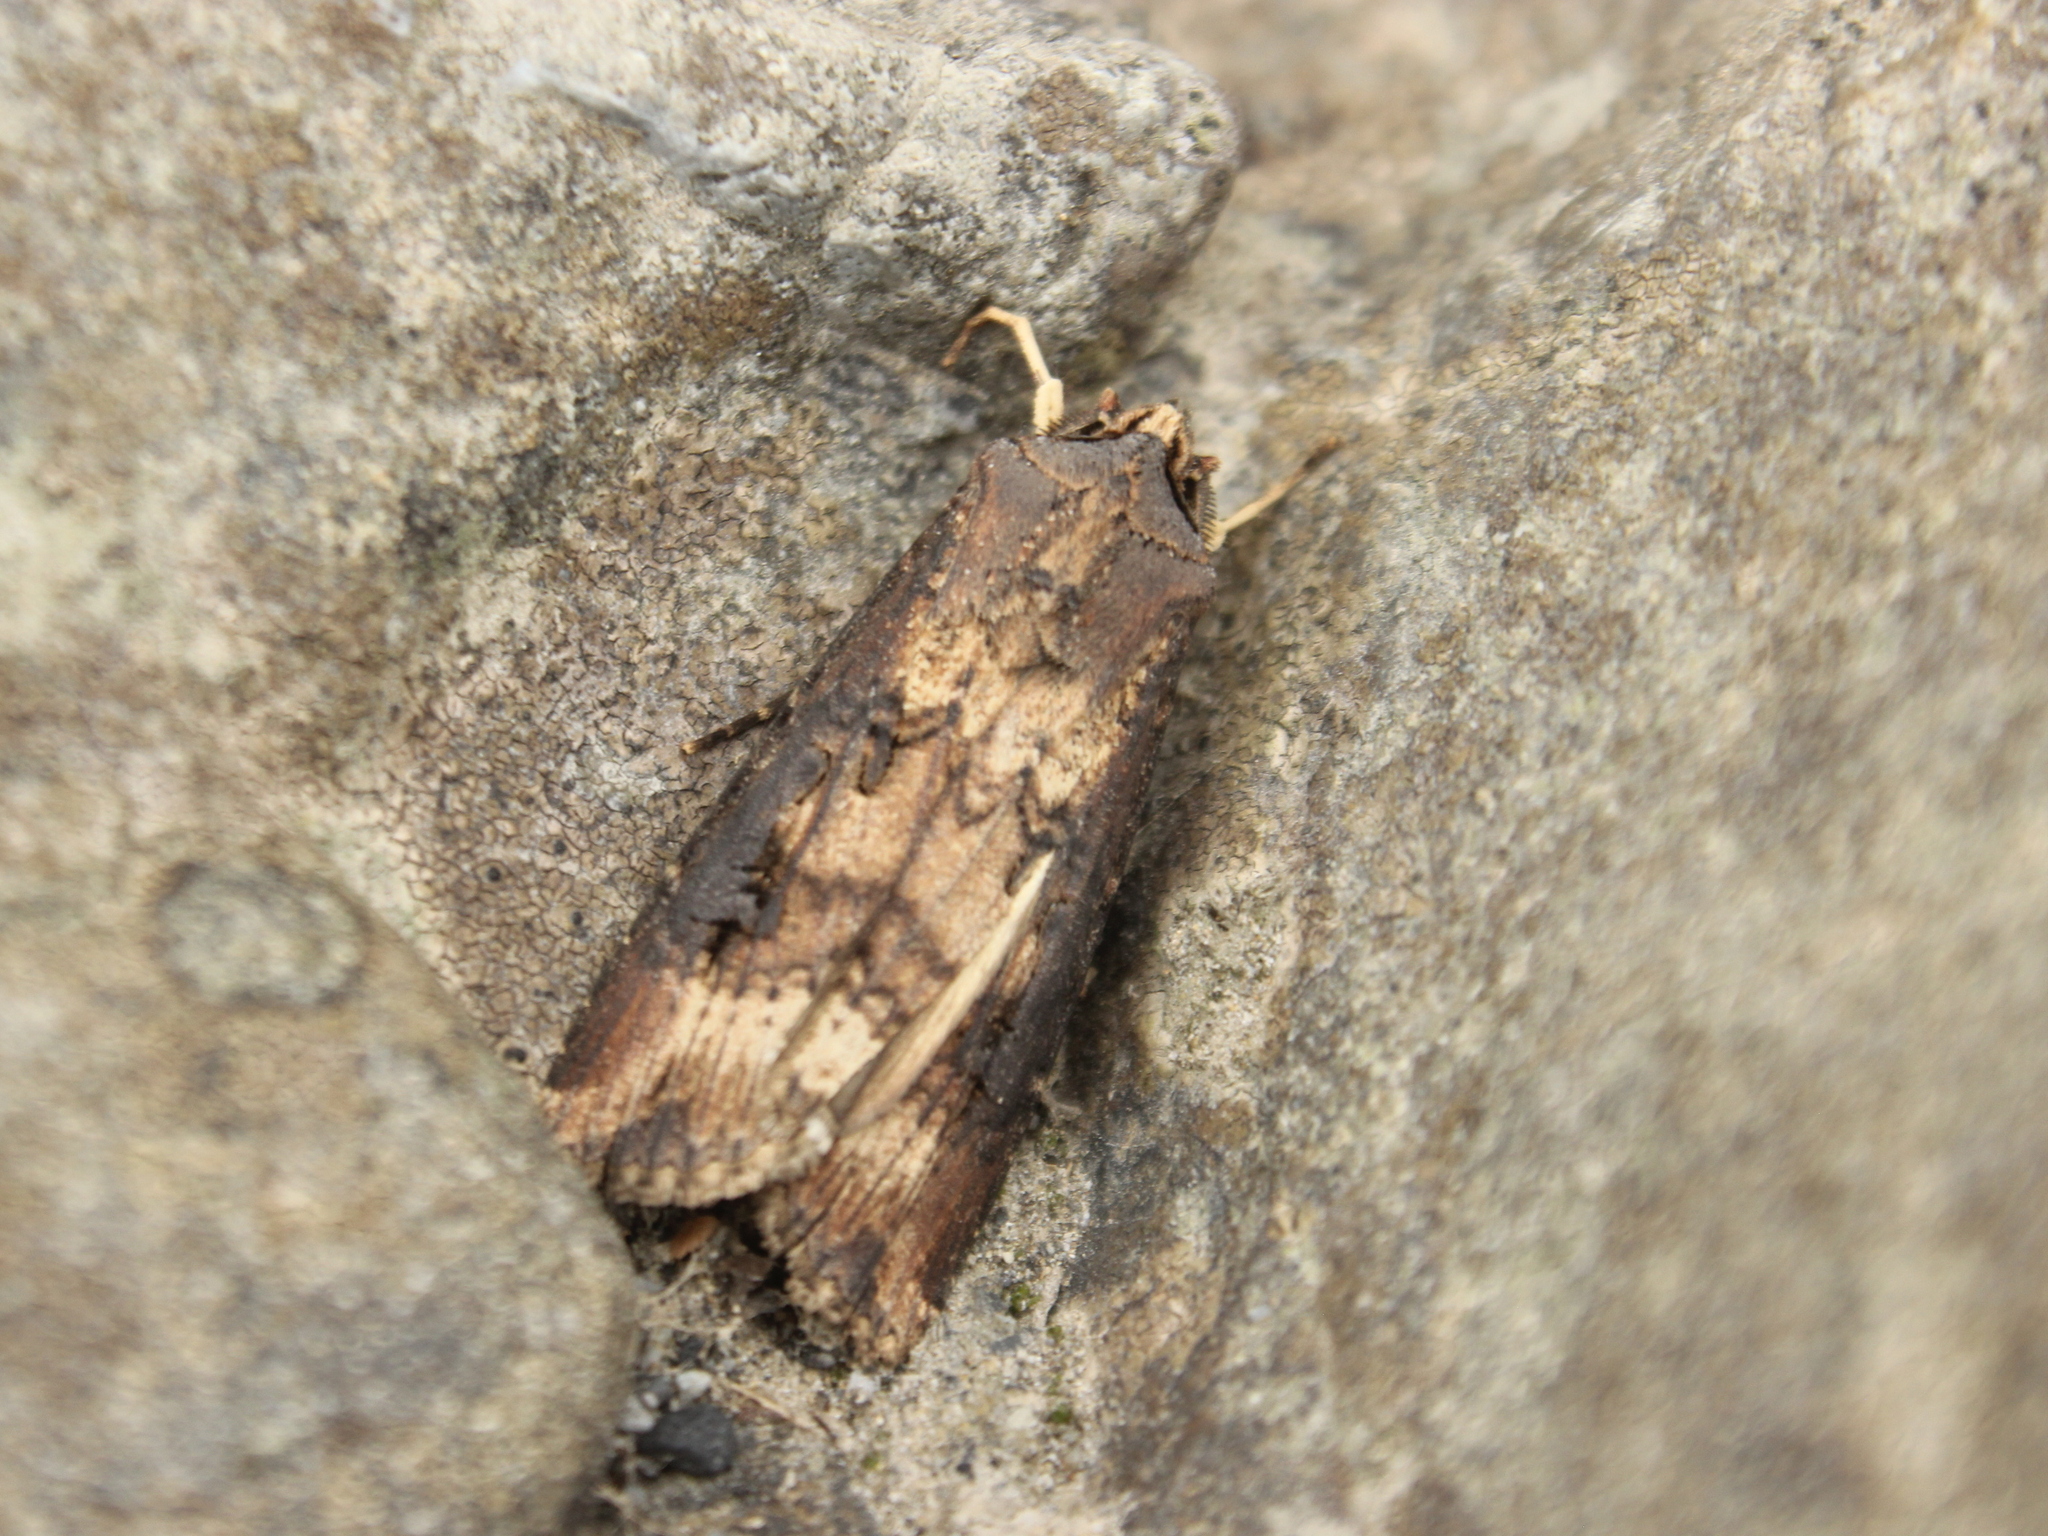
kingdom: Animalia
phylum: Arthropoda
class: Insecta
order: Lepidoptera
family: Noctuidae
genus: Agrotis
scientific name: Agrotis ipsilon
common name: Dark sword-grass
